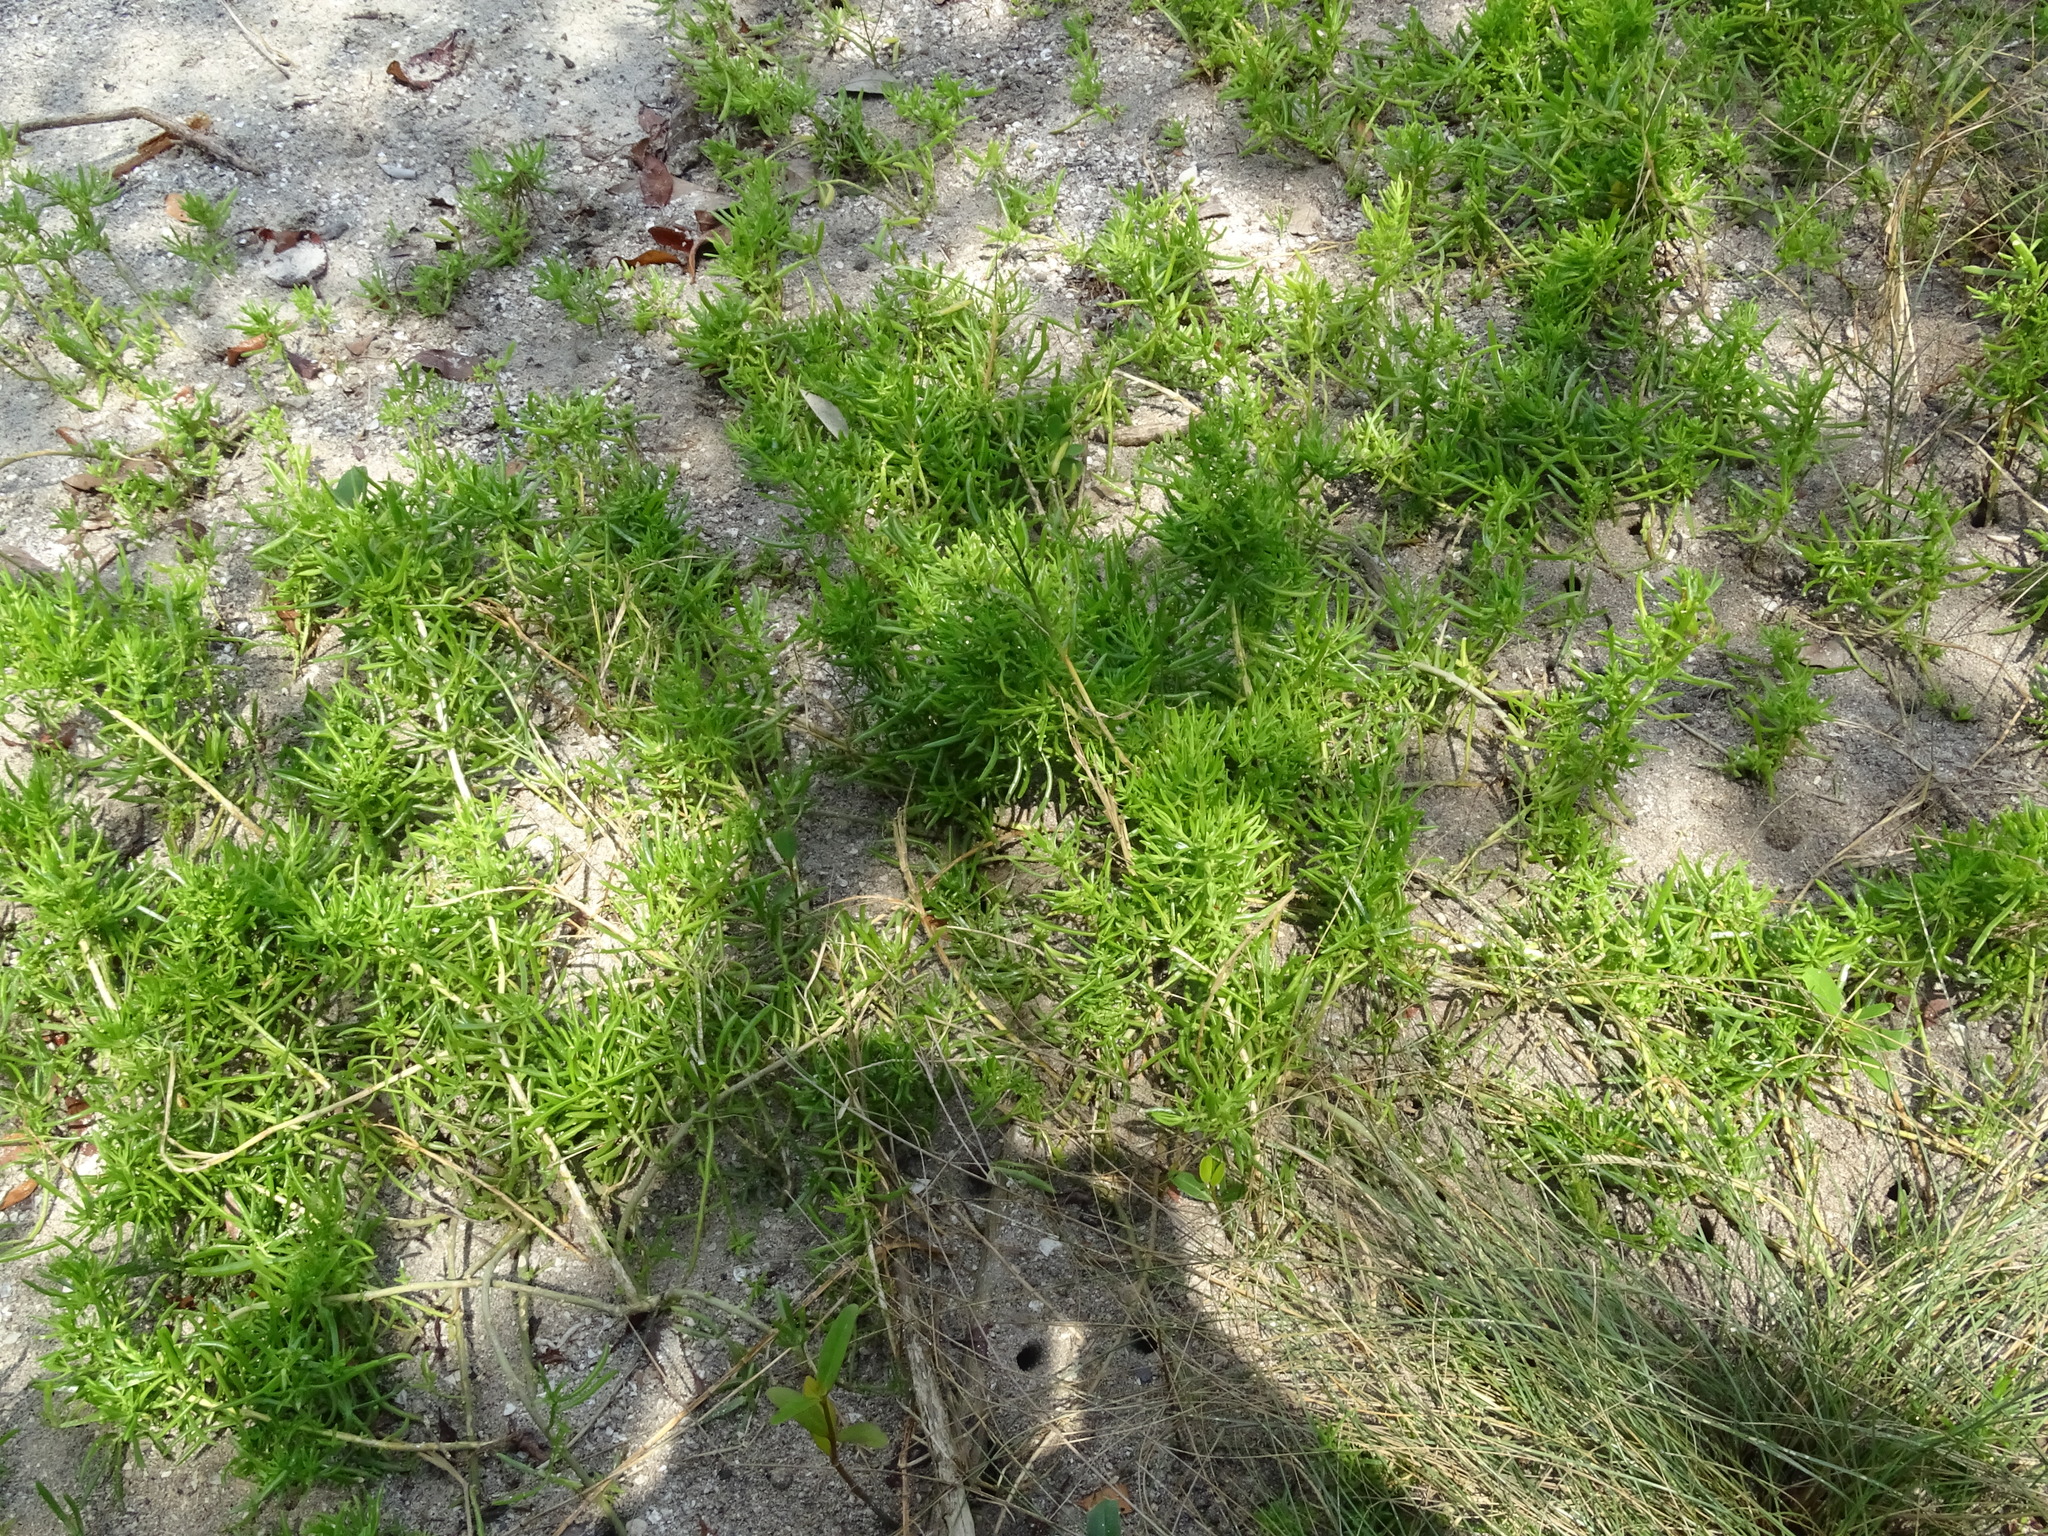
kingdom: Plantae
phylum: Tracheophyta
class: Magnoliopsida
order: Brassicales
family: Bataceae
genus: Batis
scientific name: Batis maritima
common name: Turtleweed
